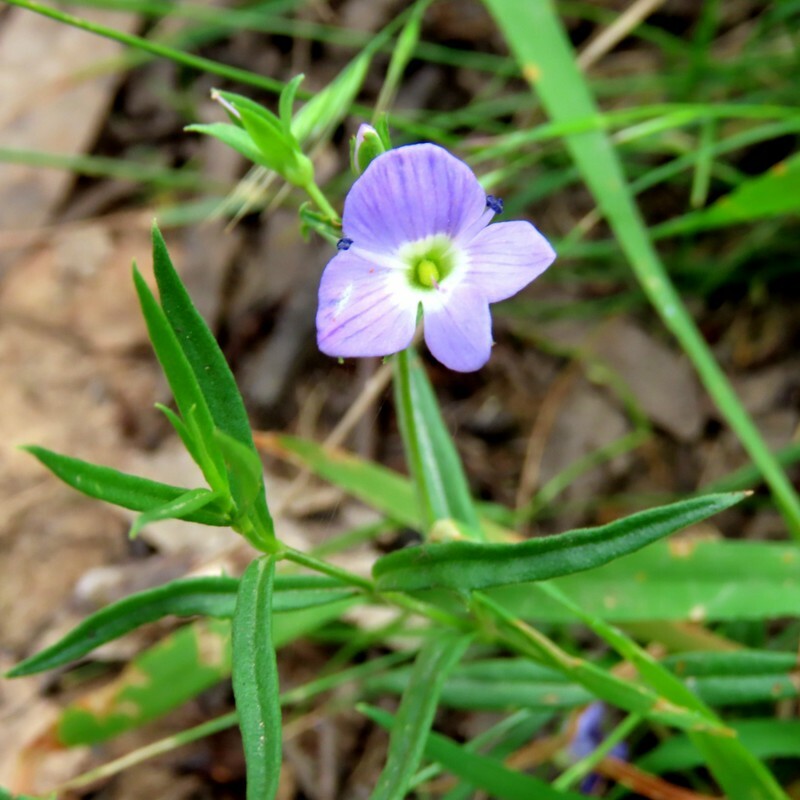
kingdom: Plantae
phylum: Tracheophyta
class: Magnoliopsida
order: Lamiales
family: Plantaginaceae
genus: Veronica
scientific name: Veronica gracilis
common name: Slender speedwell
